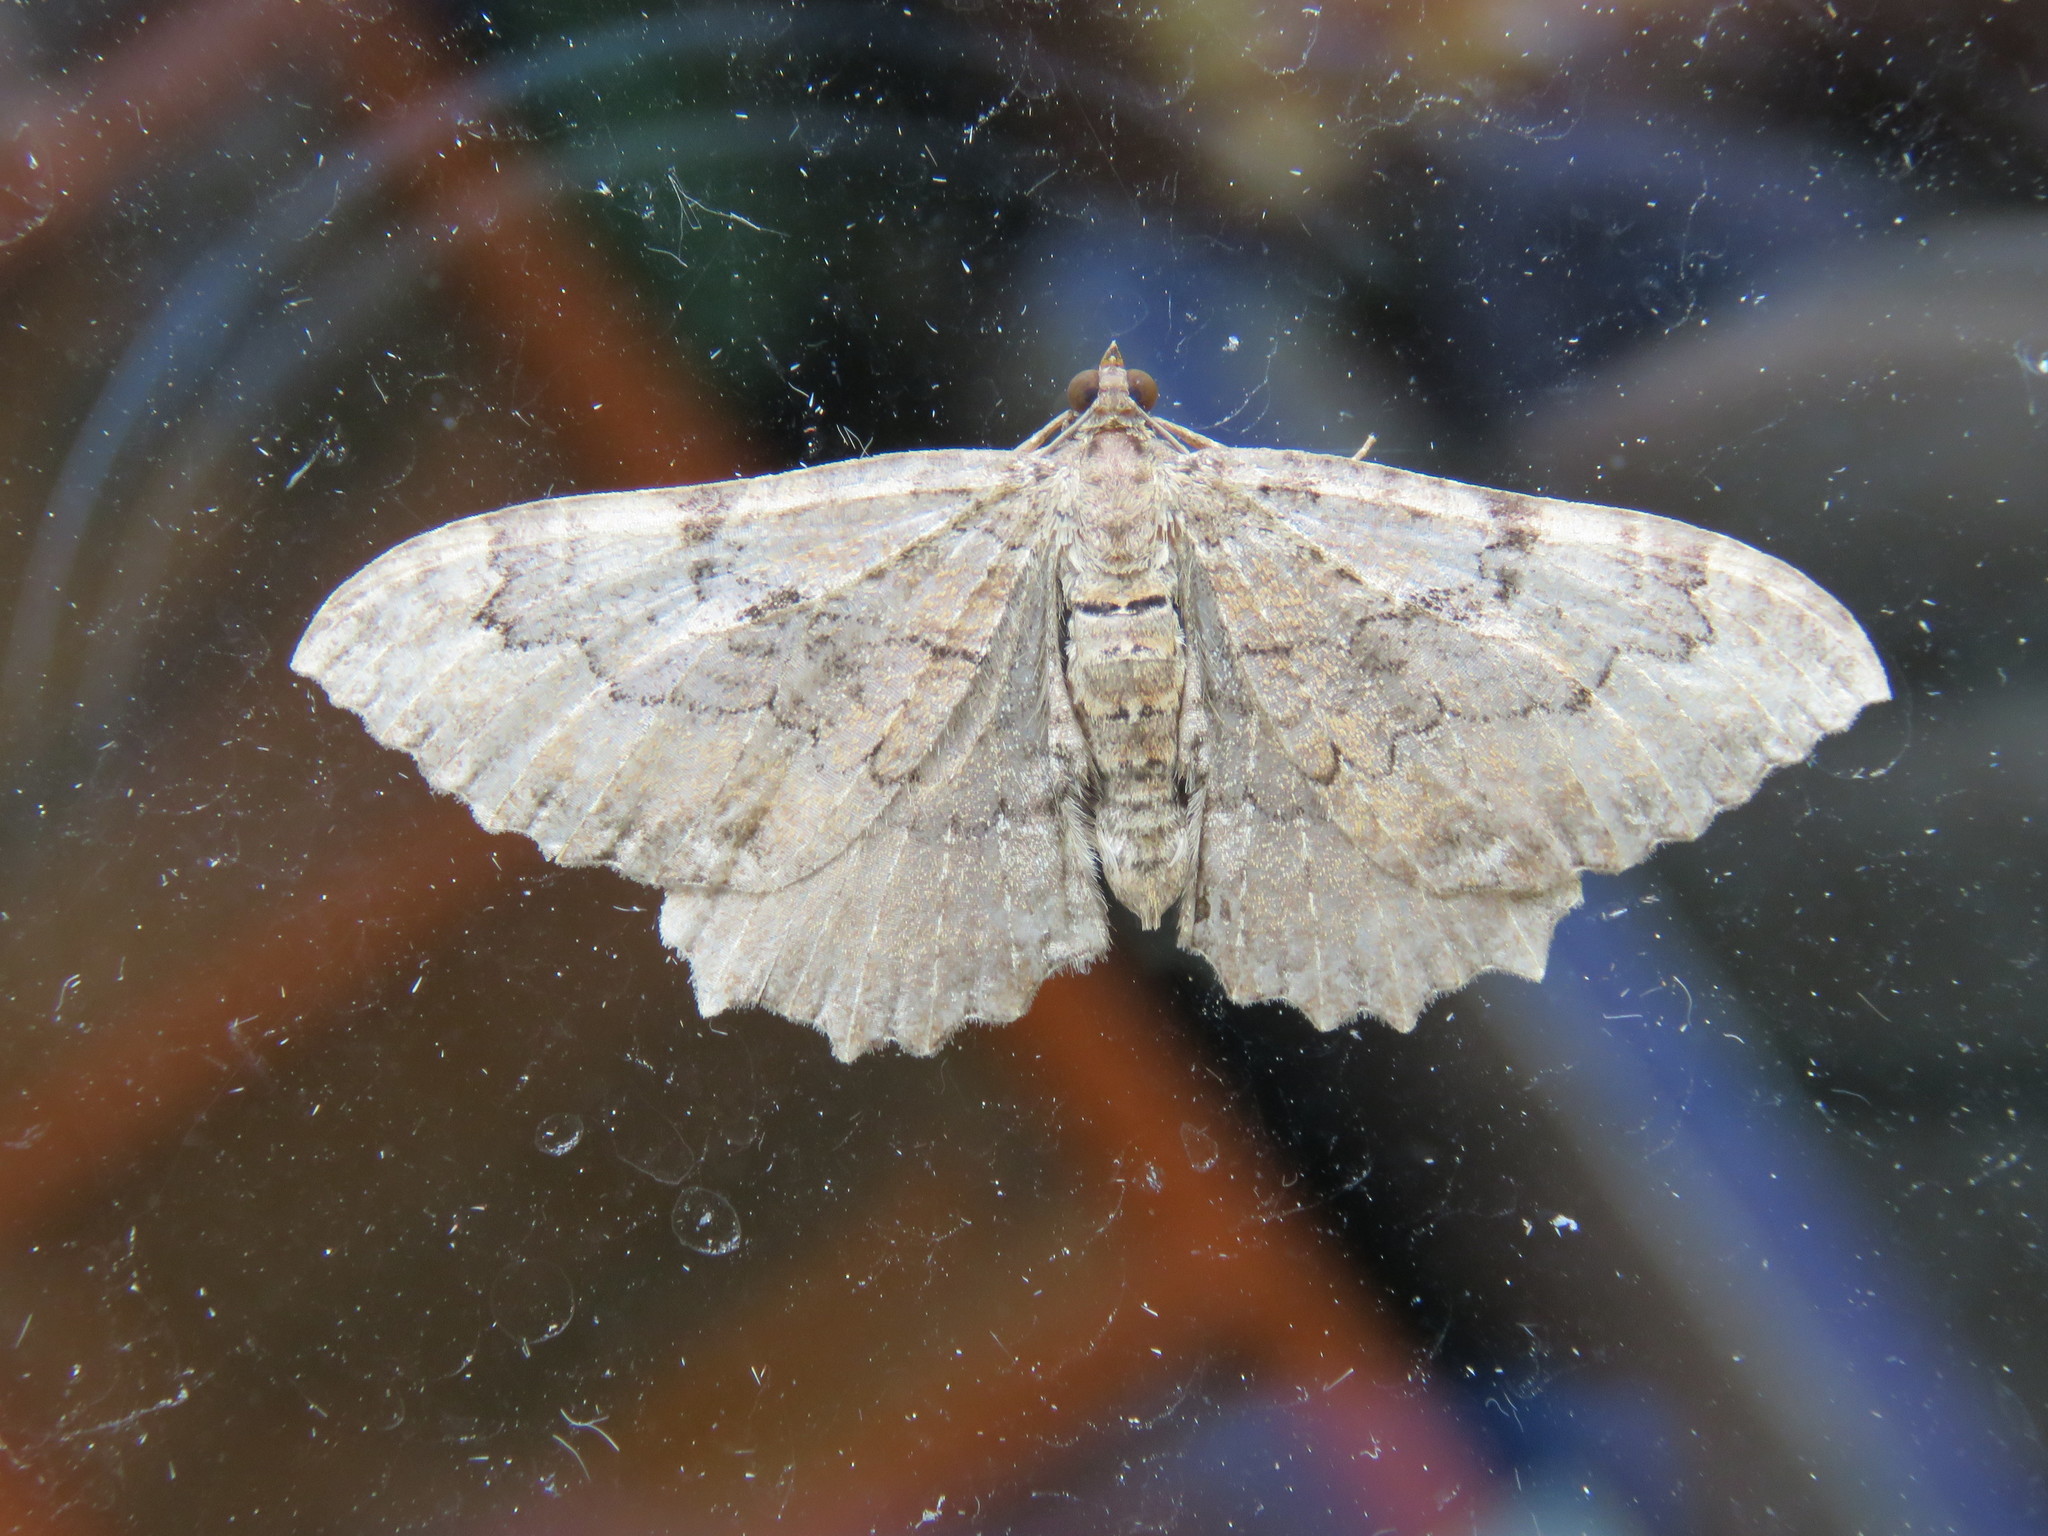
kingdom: Animalia
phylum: Arthropoda
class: Insecta
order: Lepidoptera
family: Geometridae
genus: Rheumaptera
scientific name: Rheumaptera
